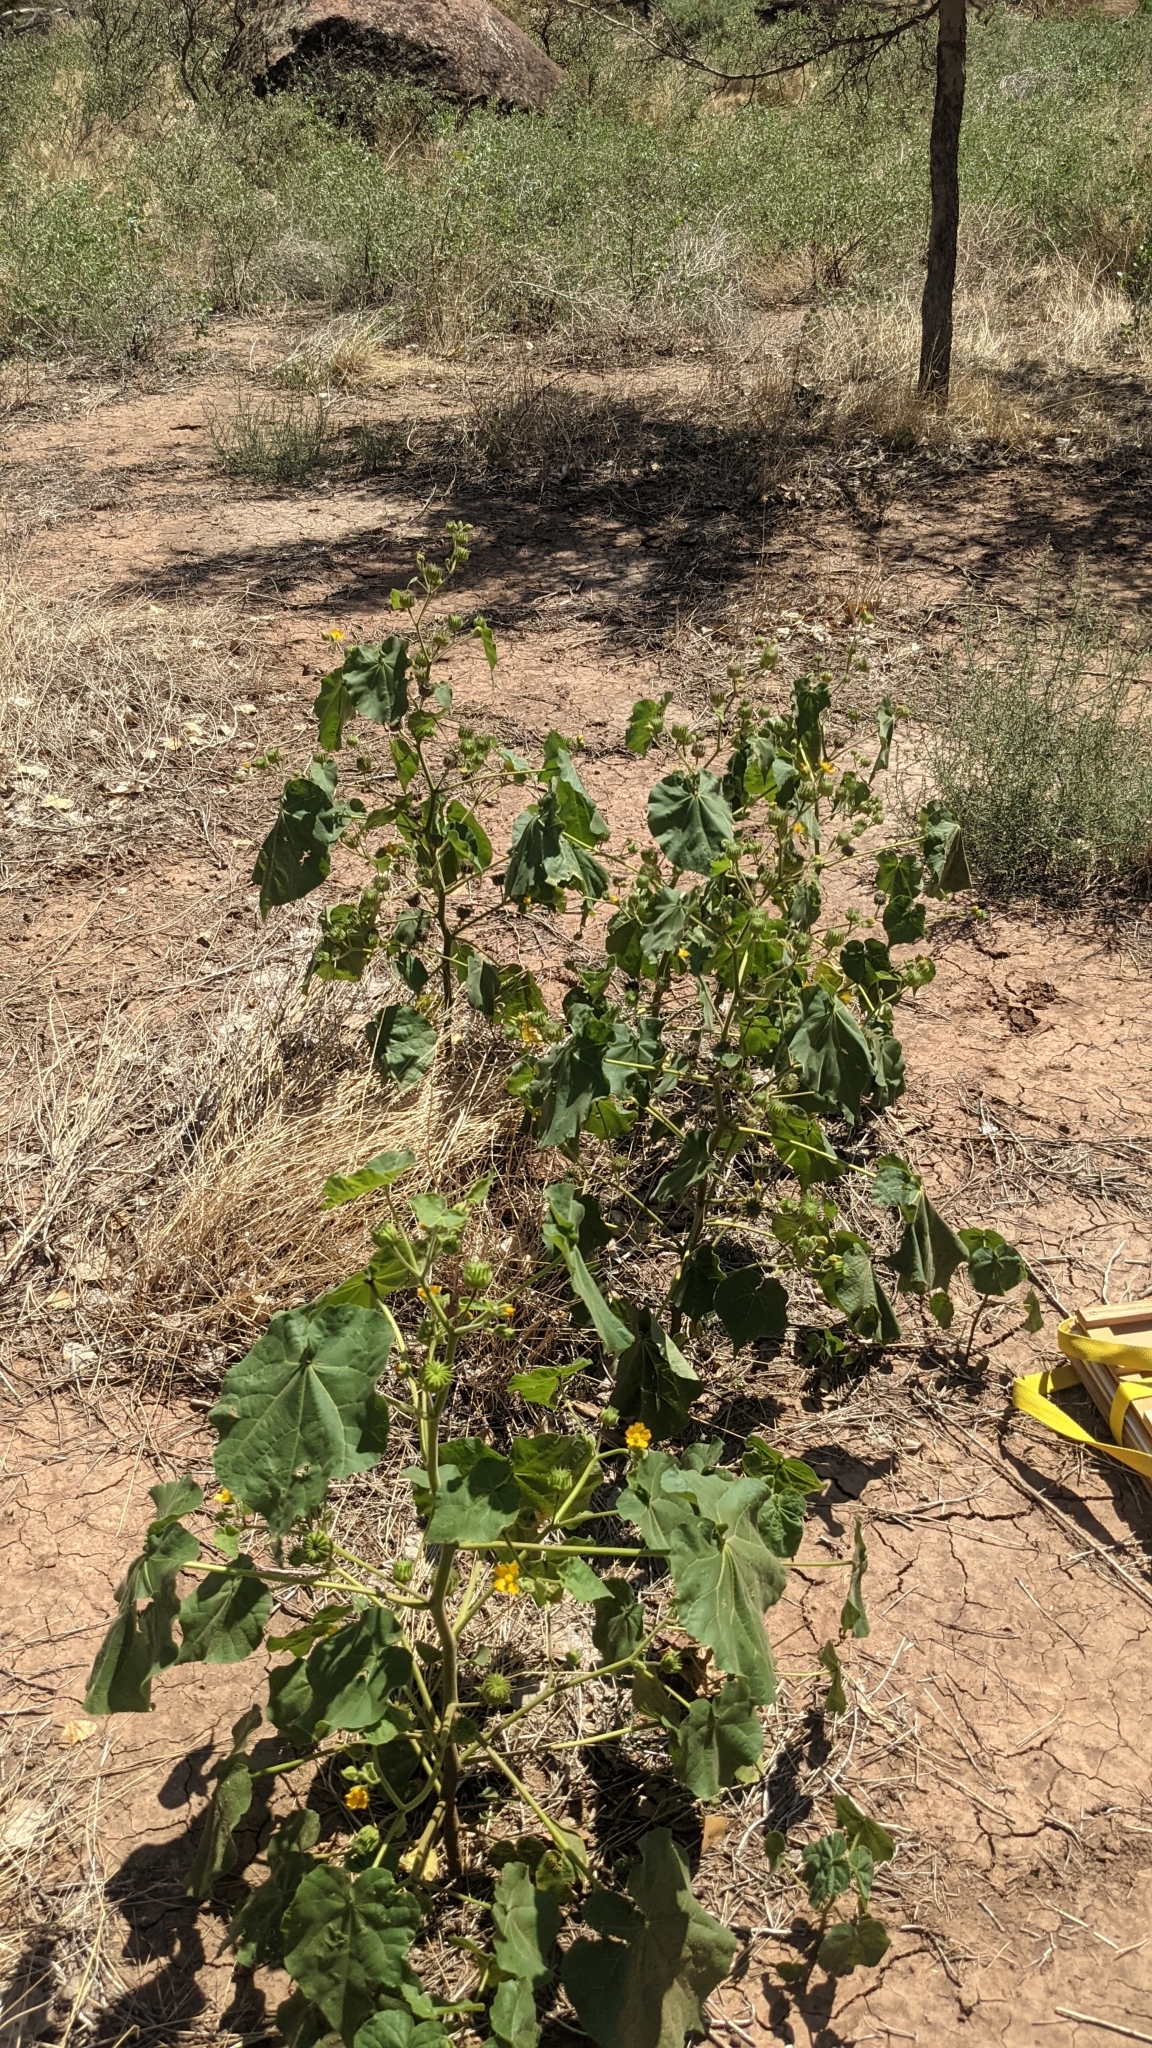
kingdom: Plantae
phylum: Tracheophyta
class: Magnoliopsida
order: Malvales
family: Malvaceae
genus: Abutilon
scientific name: Abutilon theophrasti
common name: Velvetleaf
